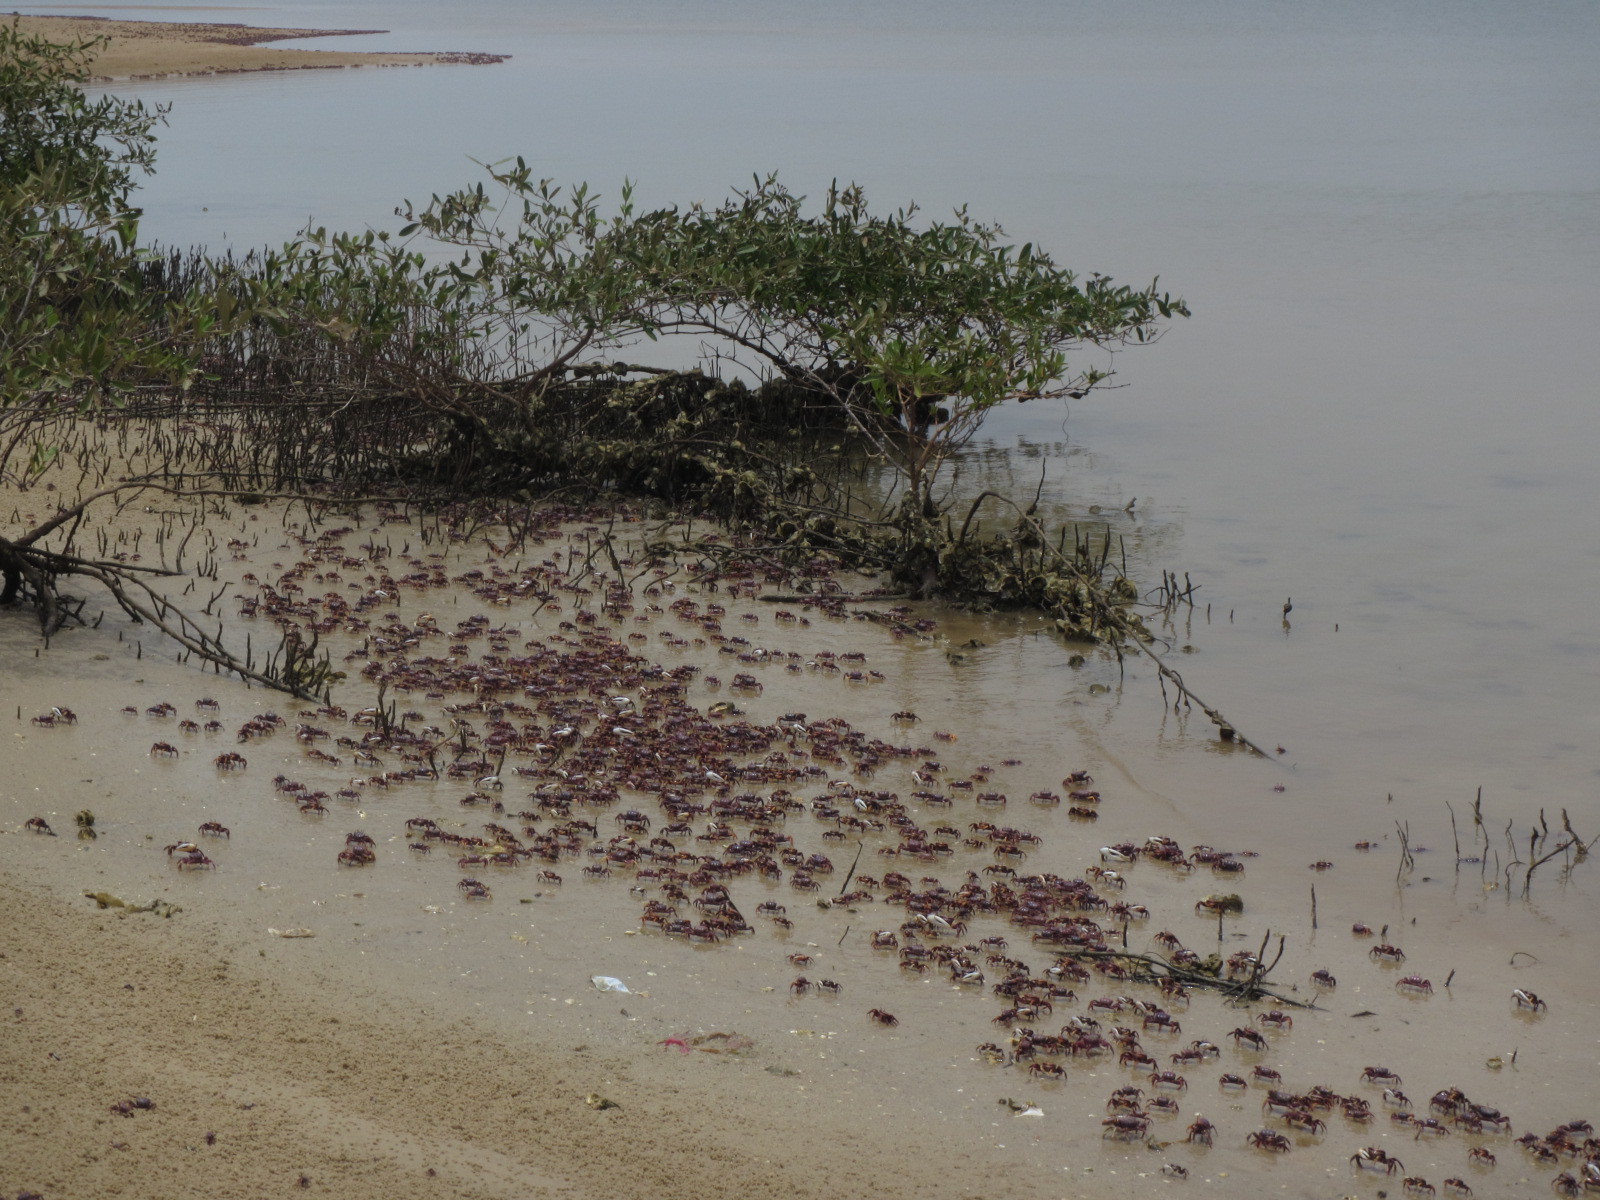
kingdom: Animalia
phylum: Arthropoda
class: Malacostraca
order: Decapoda
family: Ocypodidae
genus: Afruca
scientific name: Afruca tangeri
